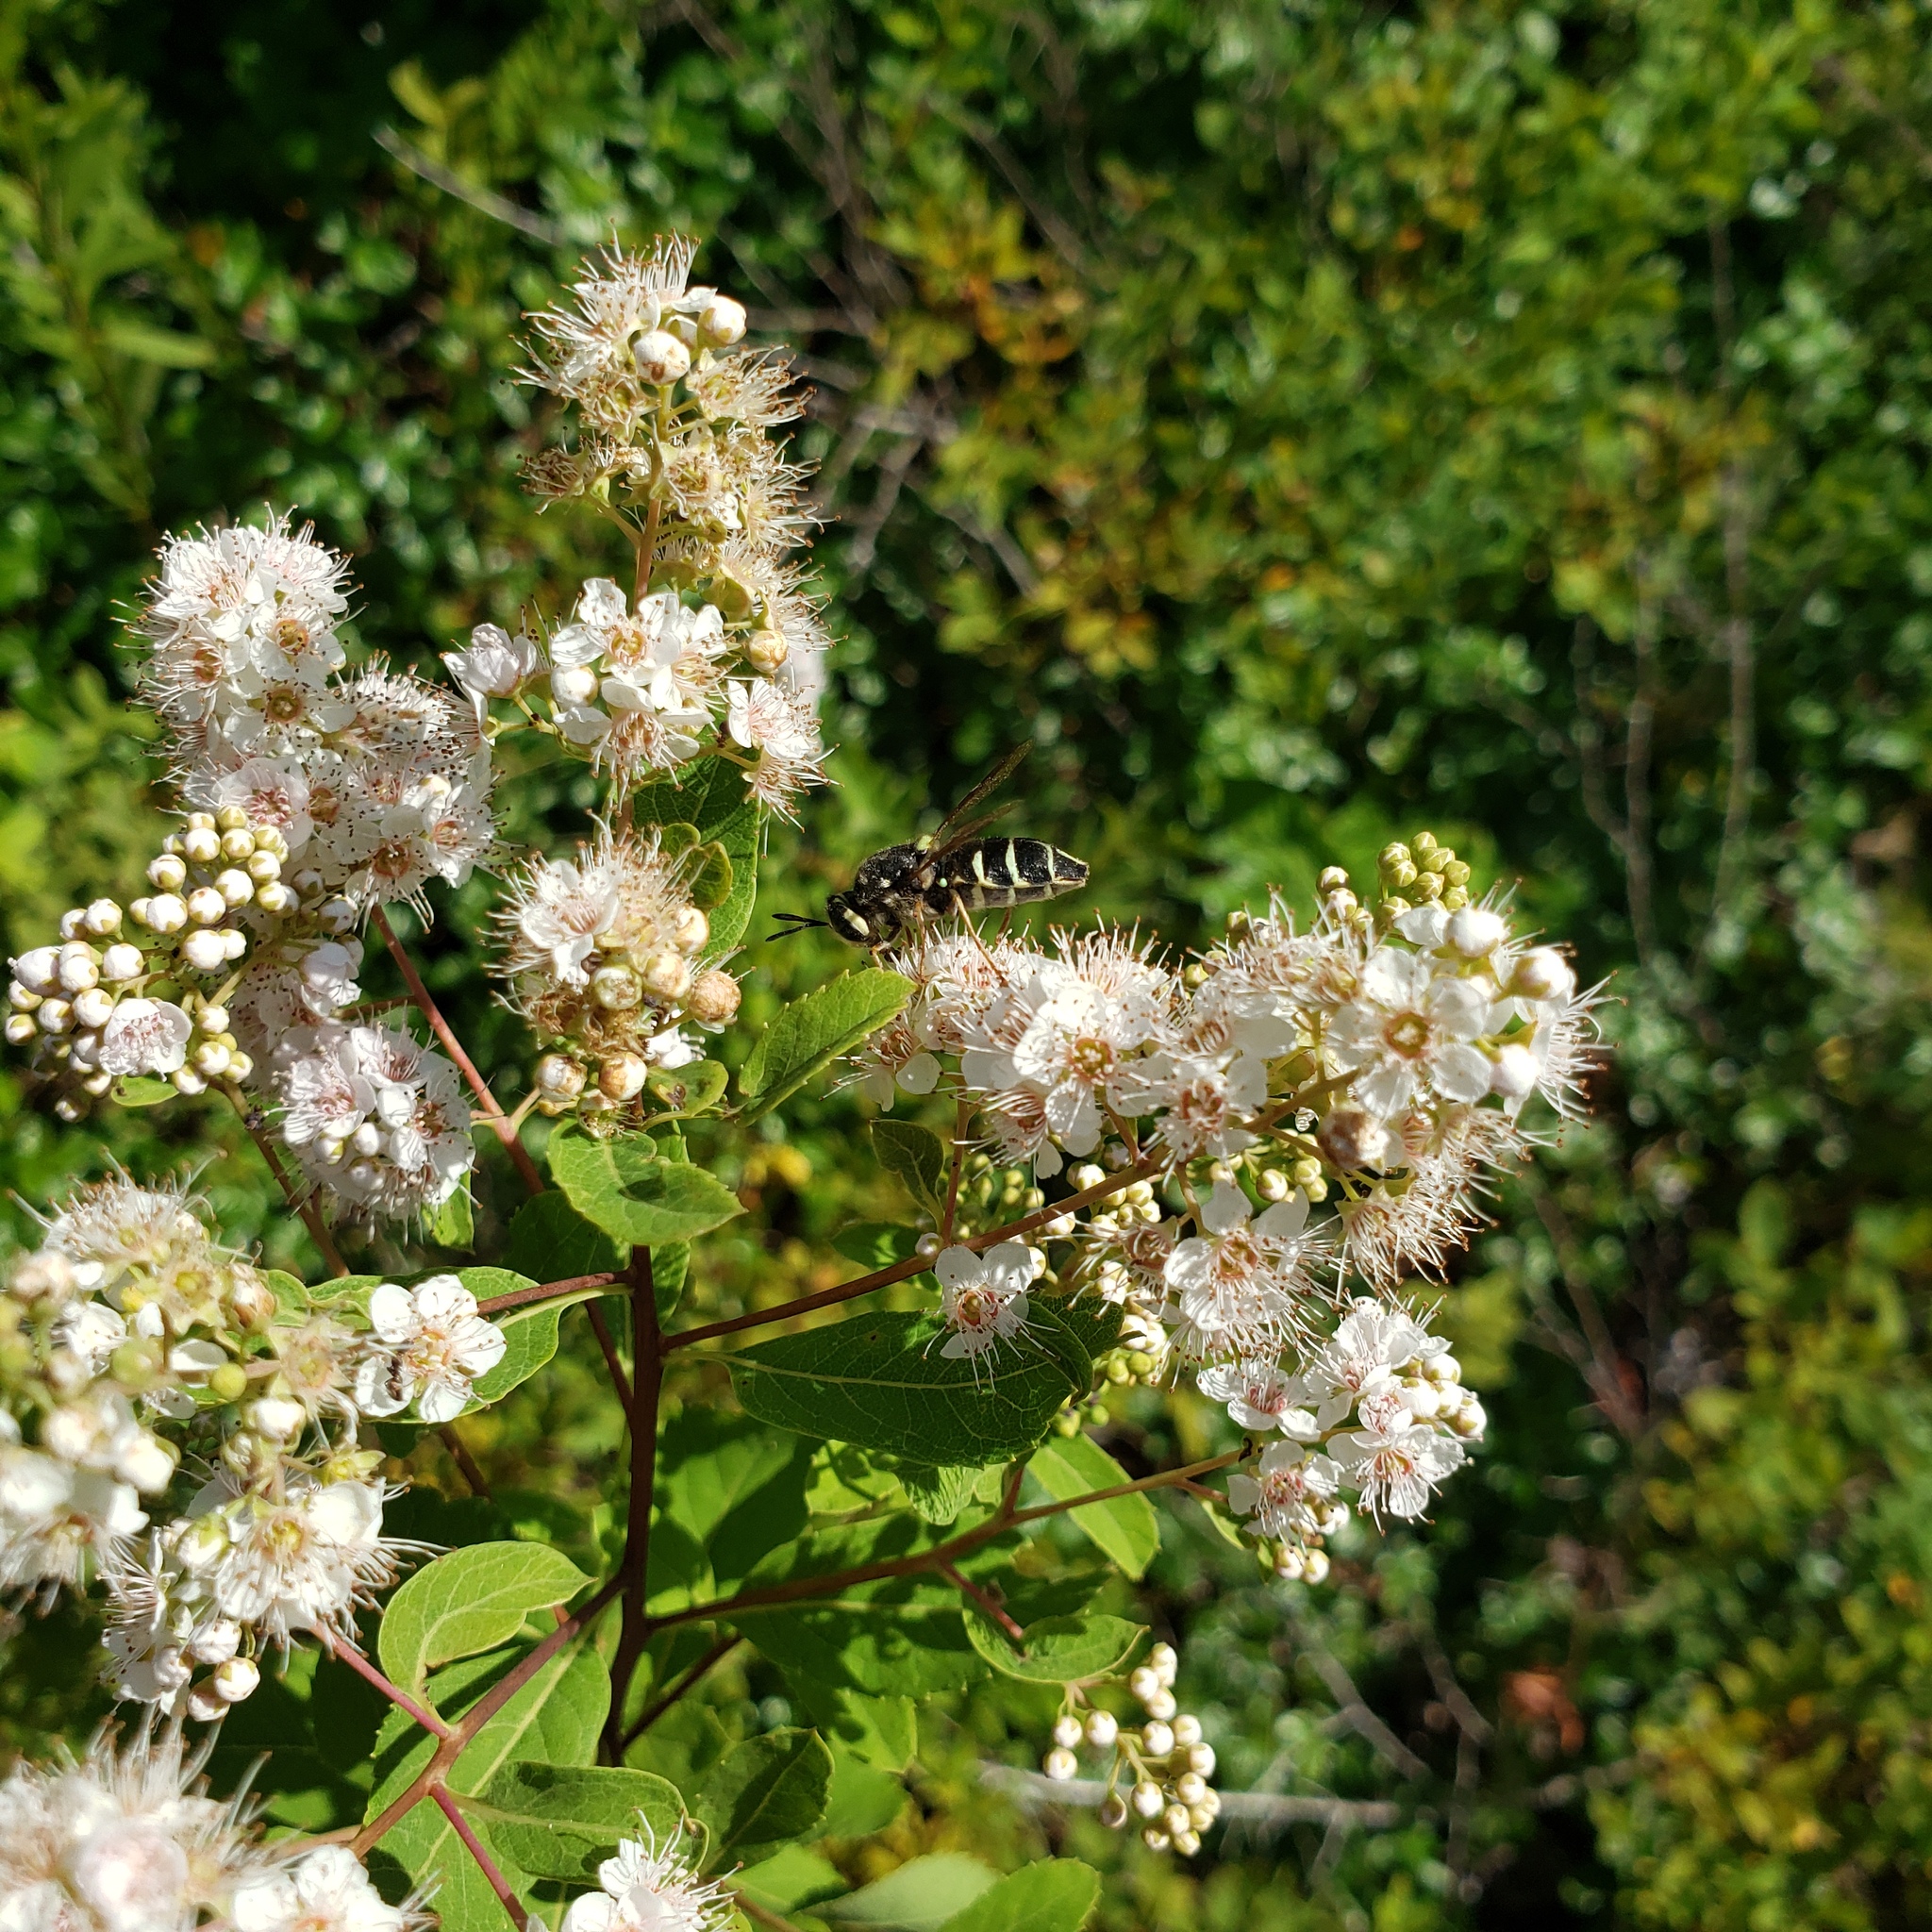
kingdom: Animalia
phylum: Arthropoda
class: Insecta
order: Diptera
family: Stratiomyidae
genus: Stratiomys
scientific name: Stratiomys badia
